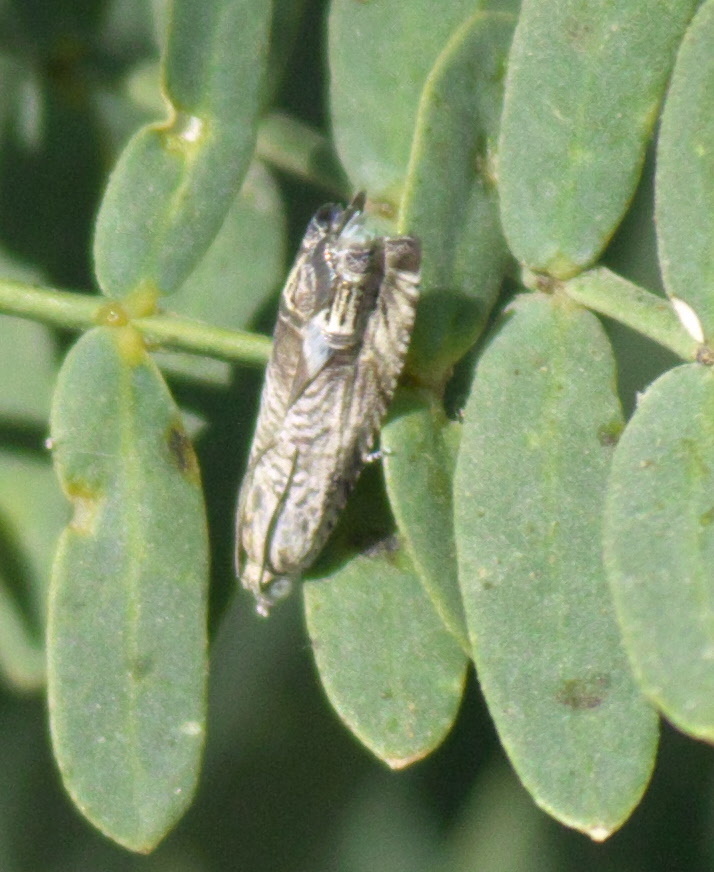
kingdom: Animalia
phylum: Arthropoda
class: Insecta
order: Lepidoptera
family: Tortricidae
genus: Ofatulena
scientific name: Ofatulena duodecemstriata
